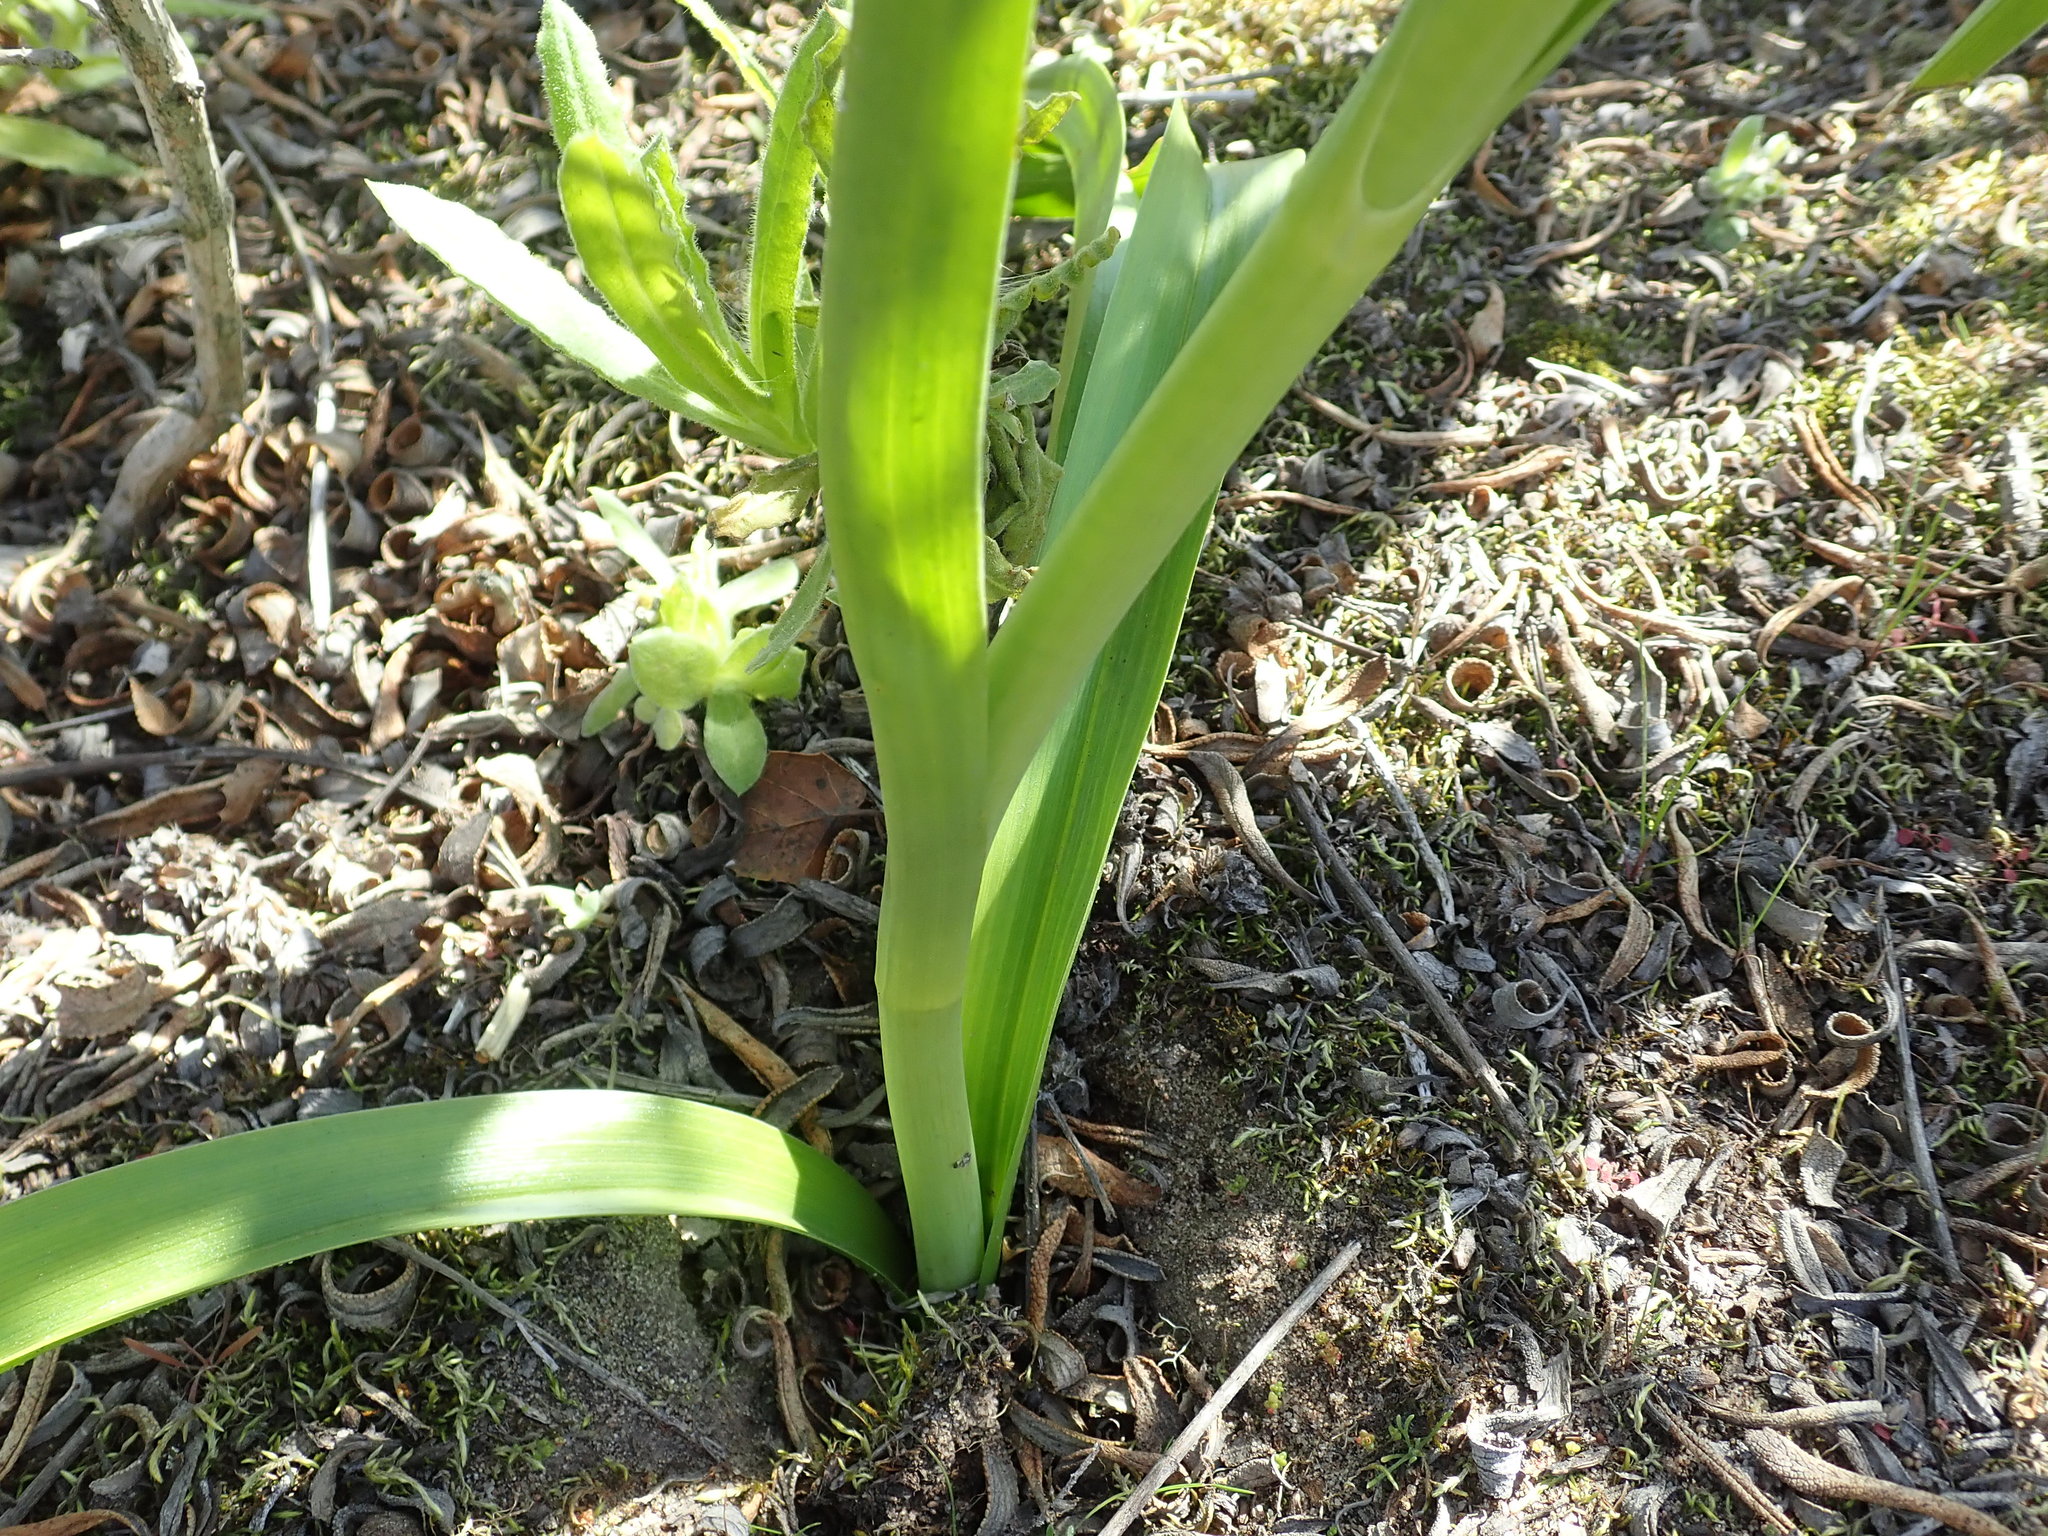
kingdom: Plantae
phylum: Tracheophyta
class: Liliopsida
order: Liliales
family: Melanthiaceae
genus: Toxicoscordion
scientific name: Toxicoscordion fremontii
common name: Fremont's death camas
